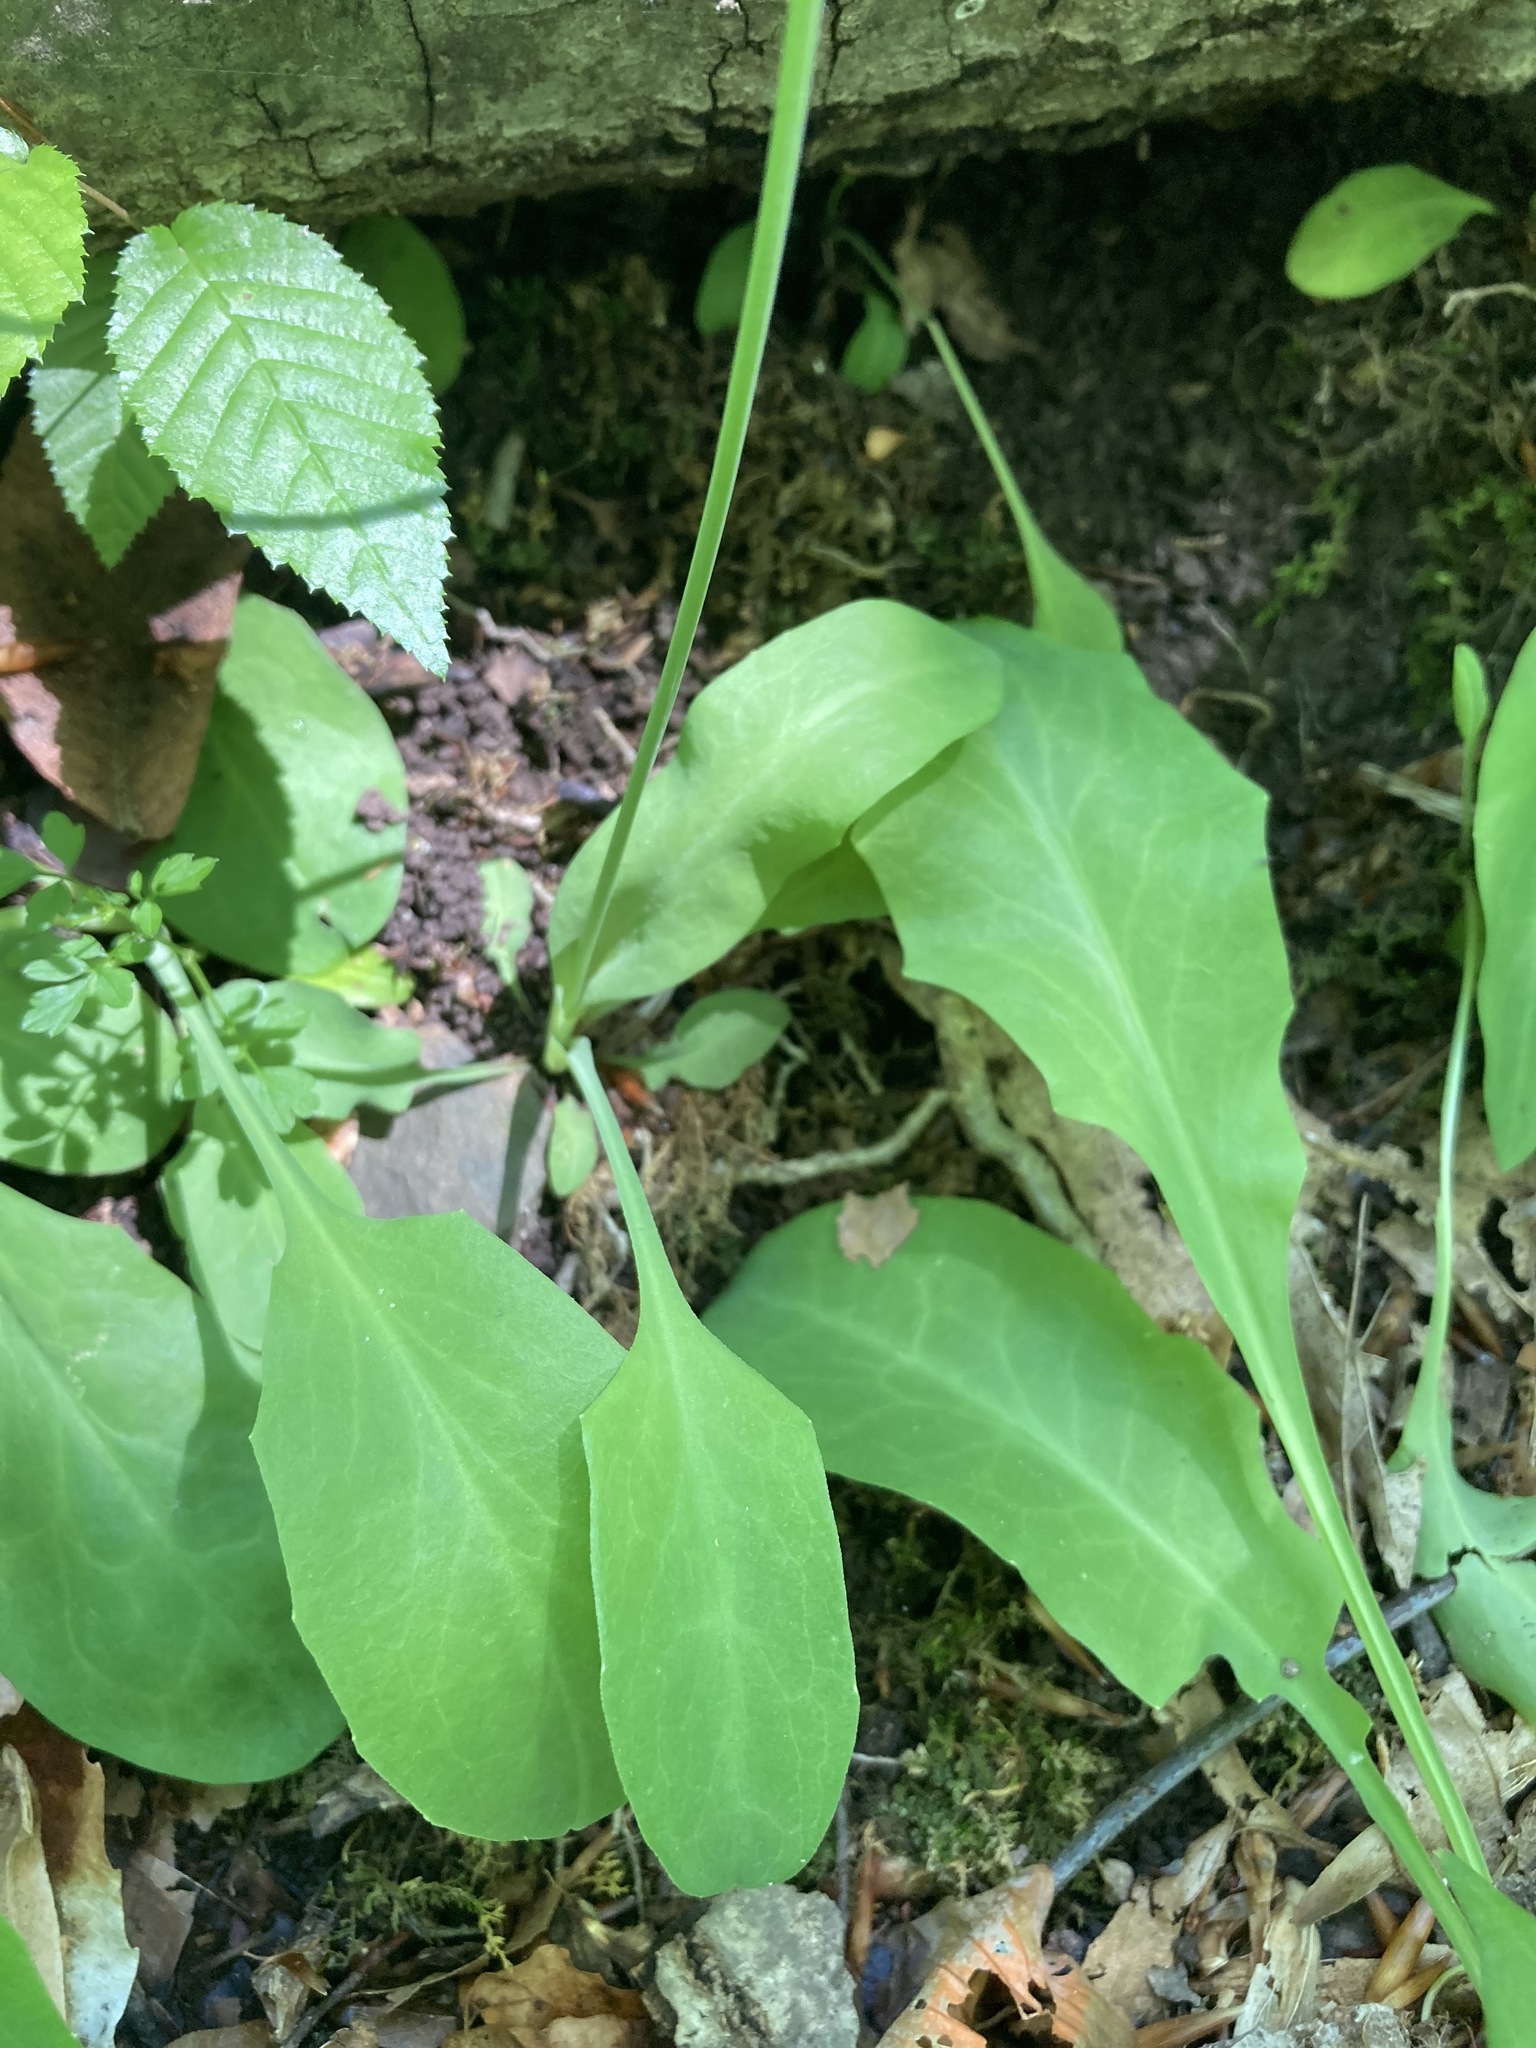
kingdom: Plantae
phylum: Tracheophyta
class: Magnoliopsida
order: Asterales
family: Asteraceae
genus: Krigia
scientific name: Krigia biflora
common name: Orange dwarf-dandelion
